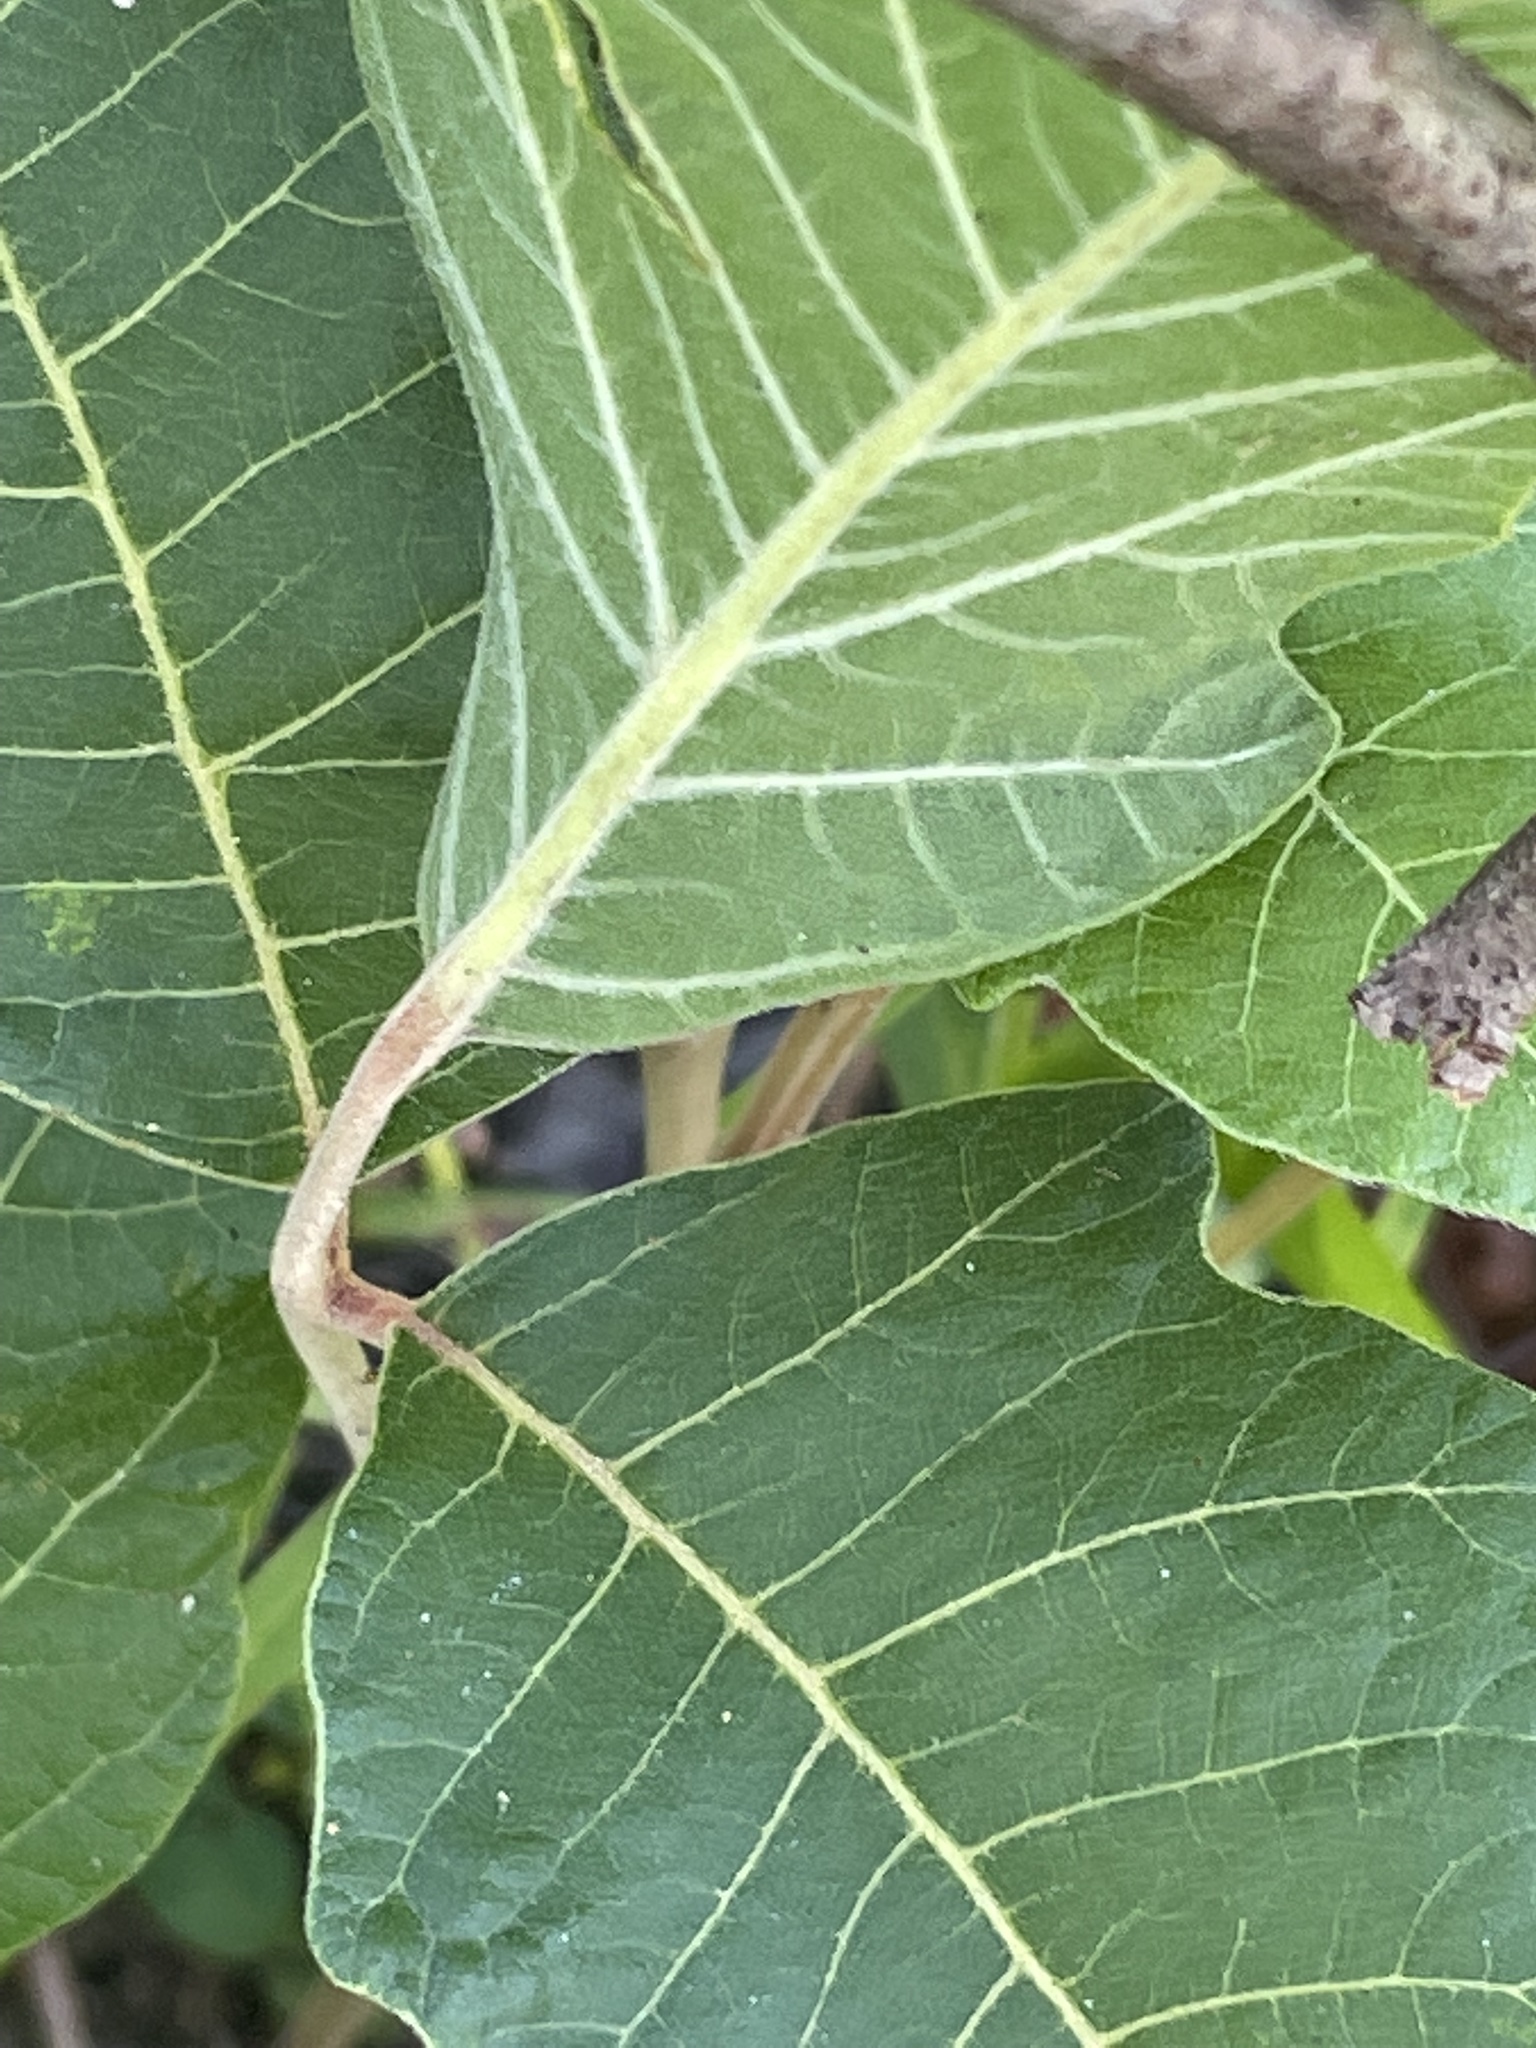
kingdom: Plantae
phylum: Tracheophyta
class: Magnoliopsida
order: Sapindales
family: Anacardiaceae
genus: Toxicodendron
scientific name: Toxicodendron pubescens
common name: Eastern poison-oak
